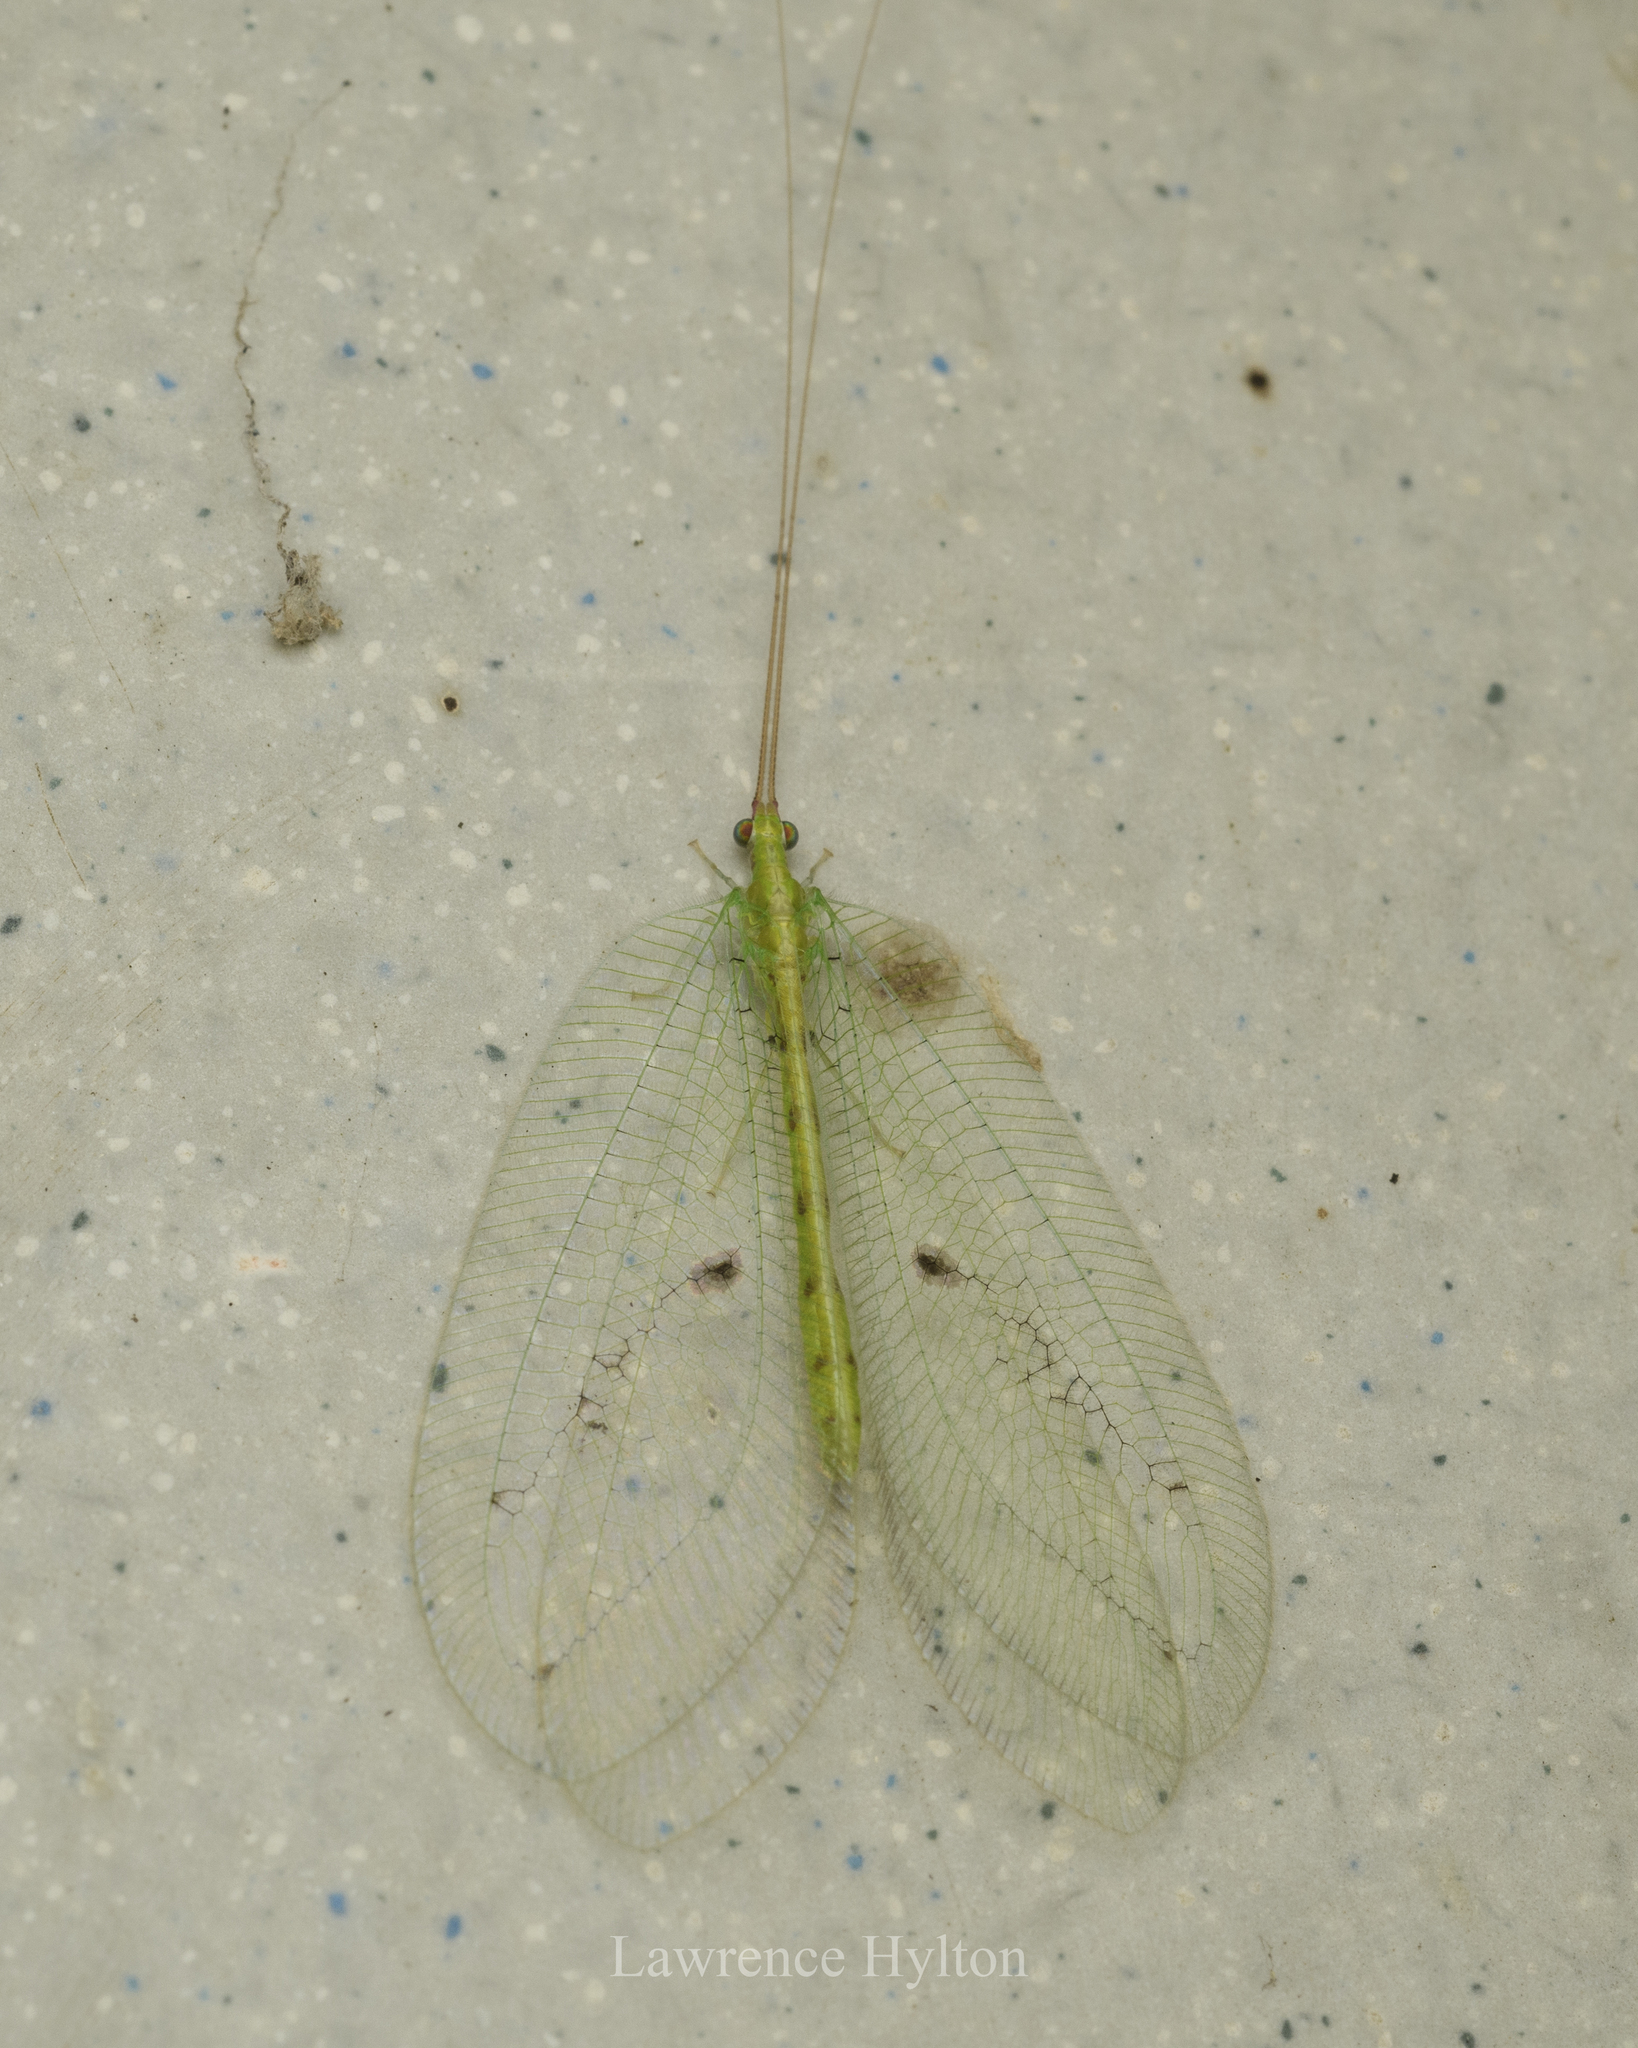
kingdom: Animalia
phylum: Arthropoda
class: Insecta
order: Neuroptera
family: Chrysopidae
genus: Apochrysa
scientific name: Apochrysa matsumurae
